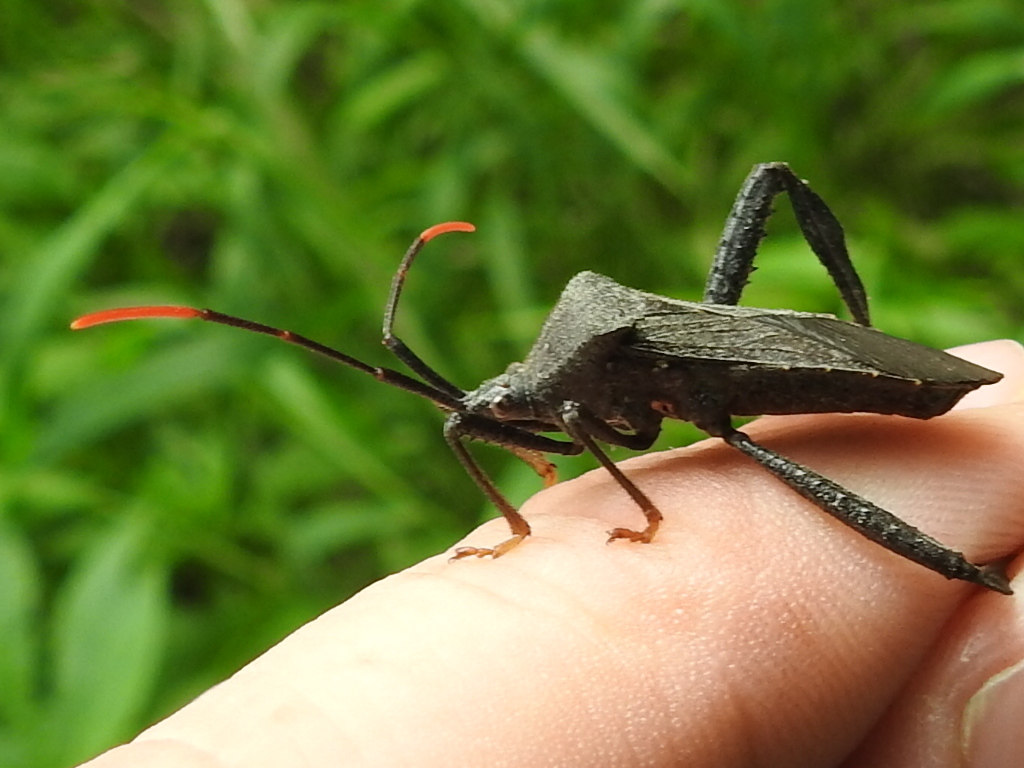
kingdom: Animalia
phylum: Arthropoda
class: Insecta
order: Hemiptera
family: Coreidae
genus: Acanthocephala
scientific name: Acanthocephala terminalis
